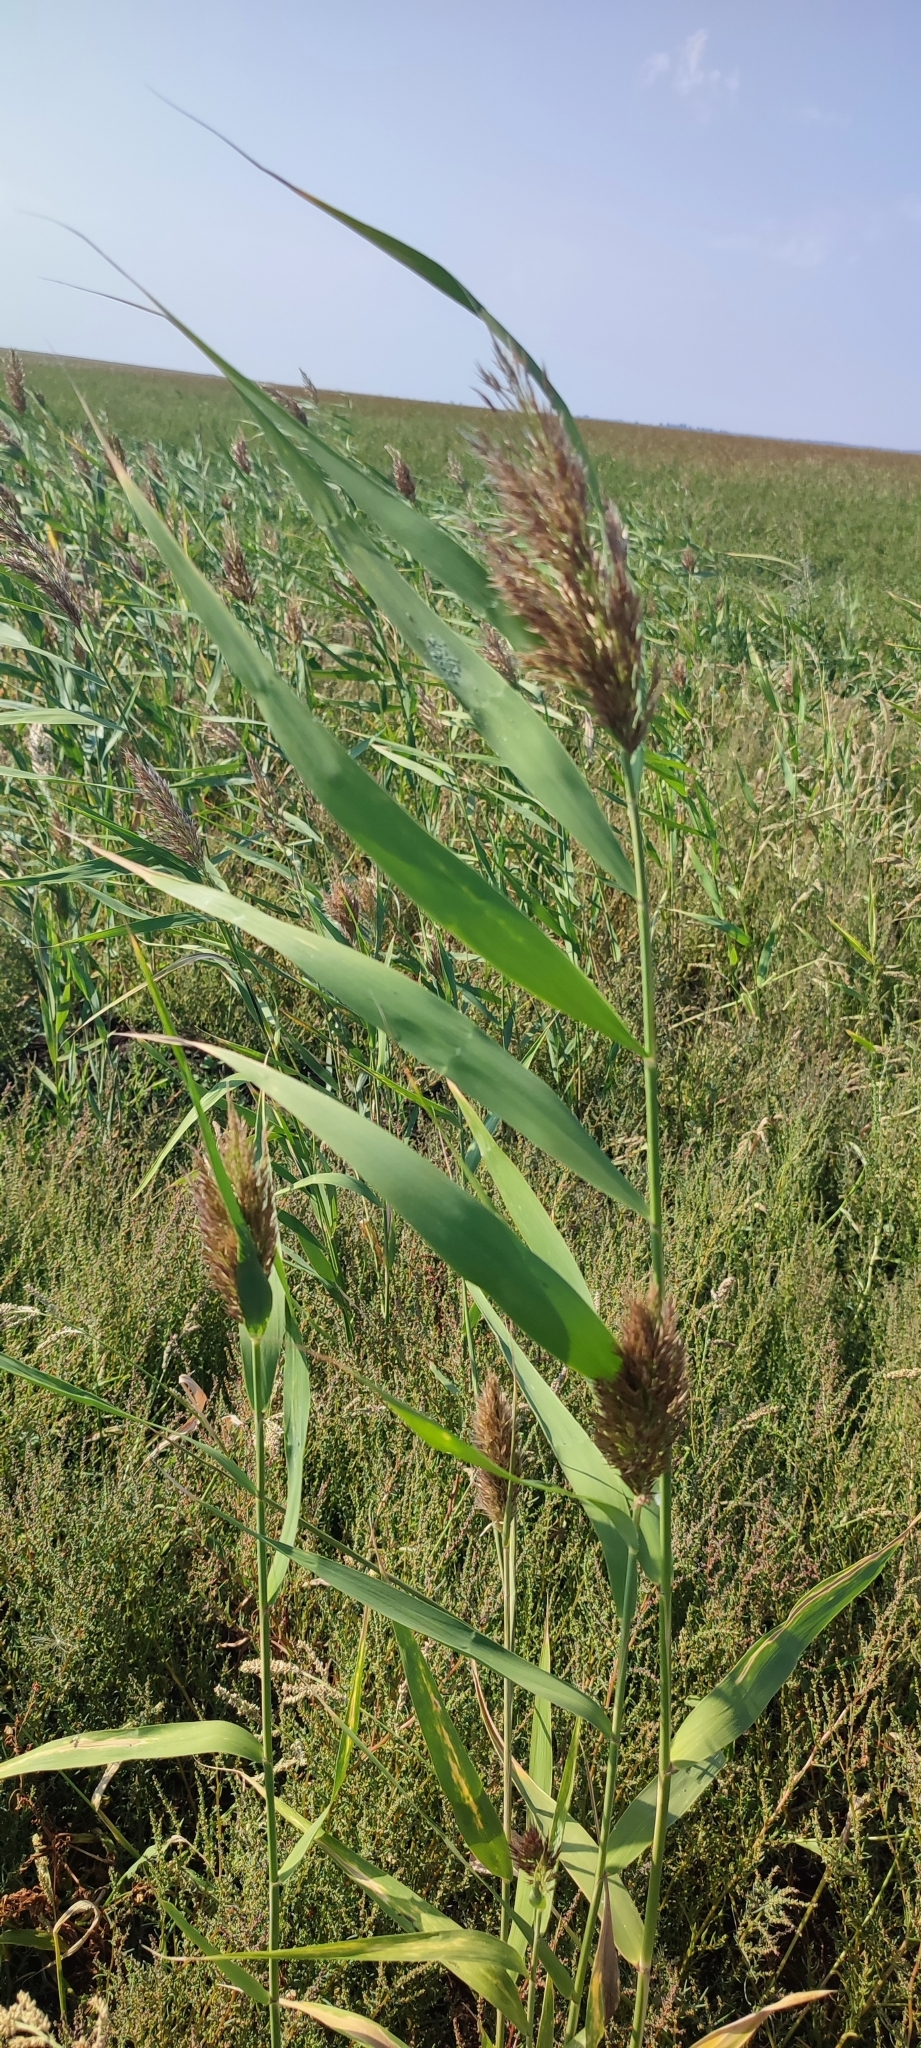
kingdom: Plantae
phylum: Tracheophyta
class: Liliopsida
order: Poales
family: Poaceae
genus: Phragmites
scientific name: Phragmites australis
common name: Common reed
